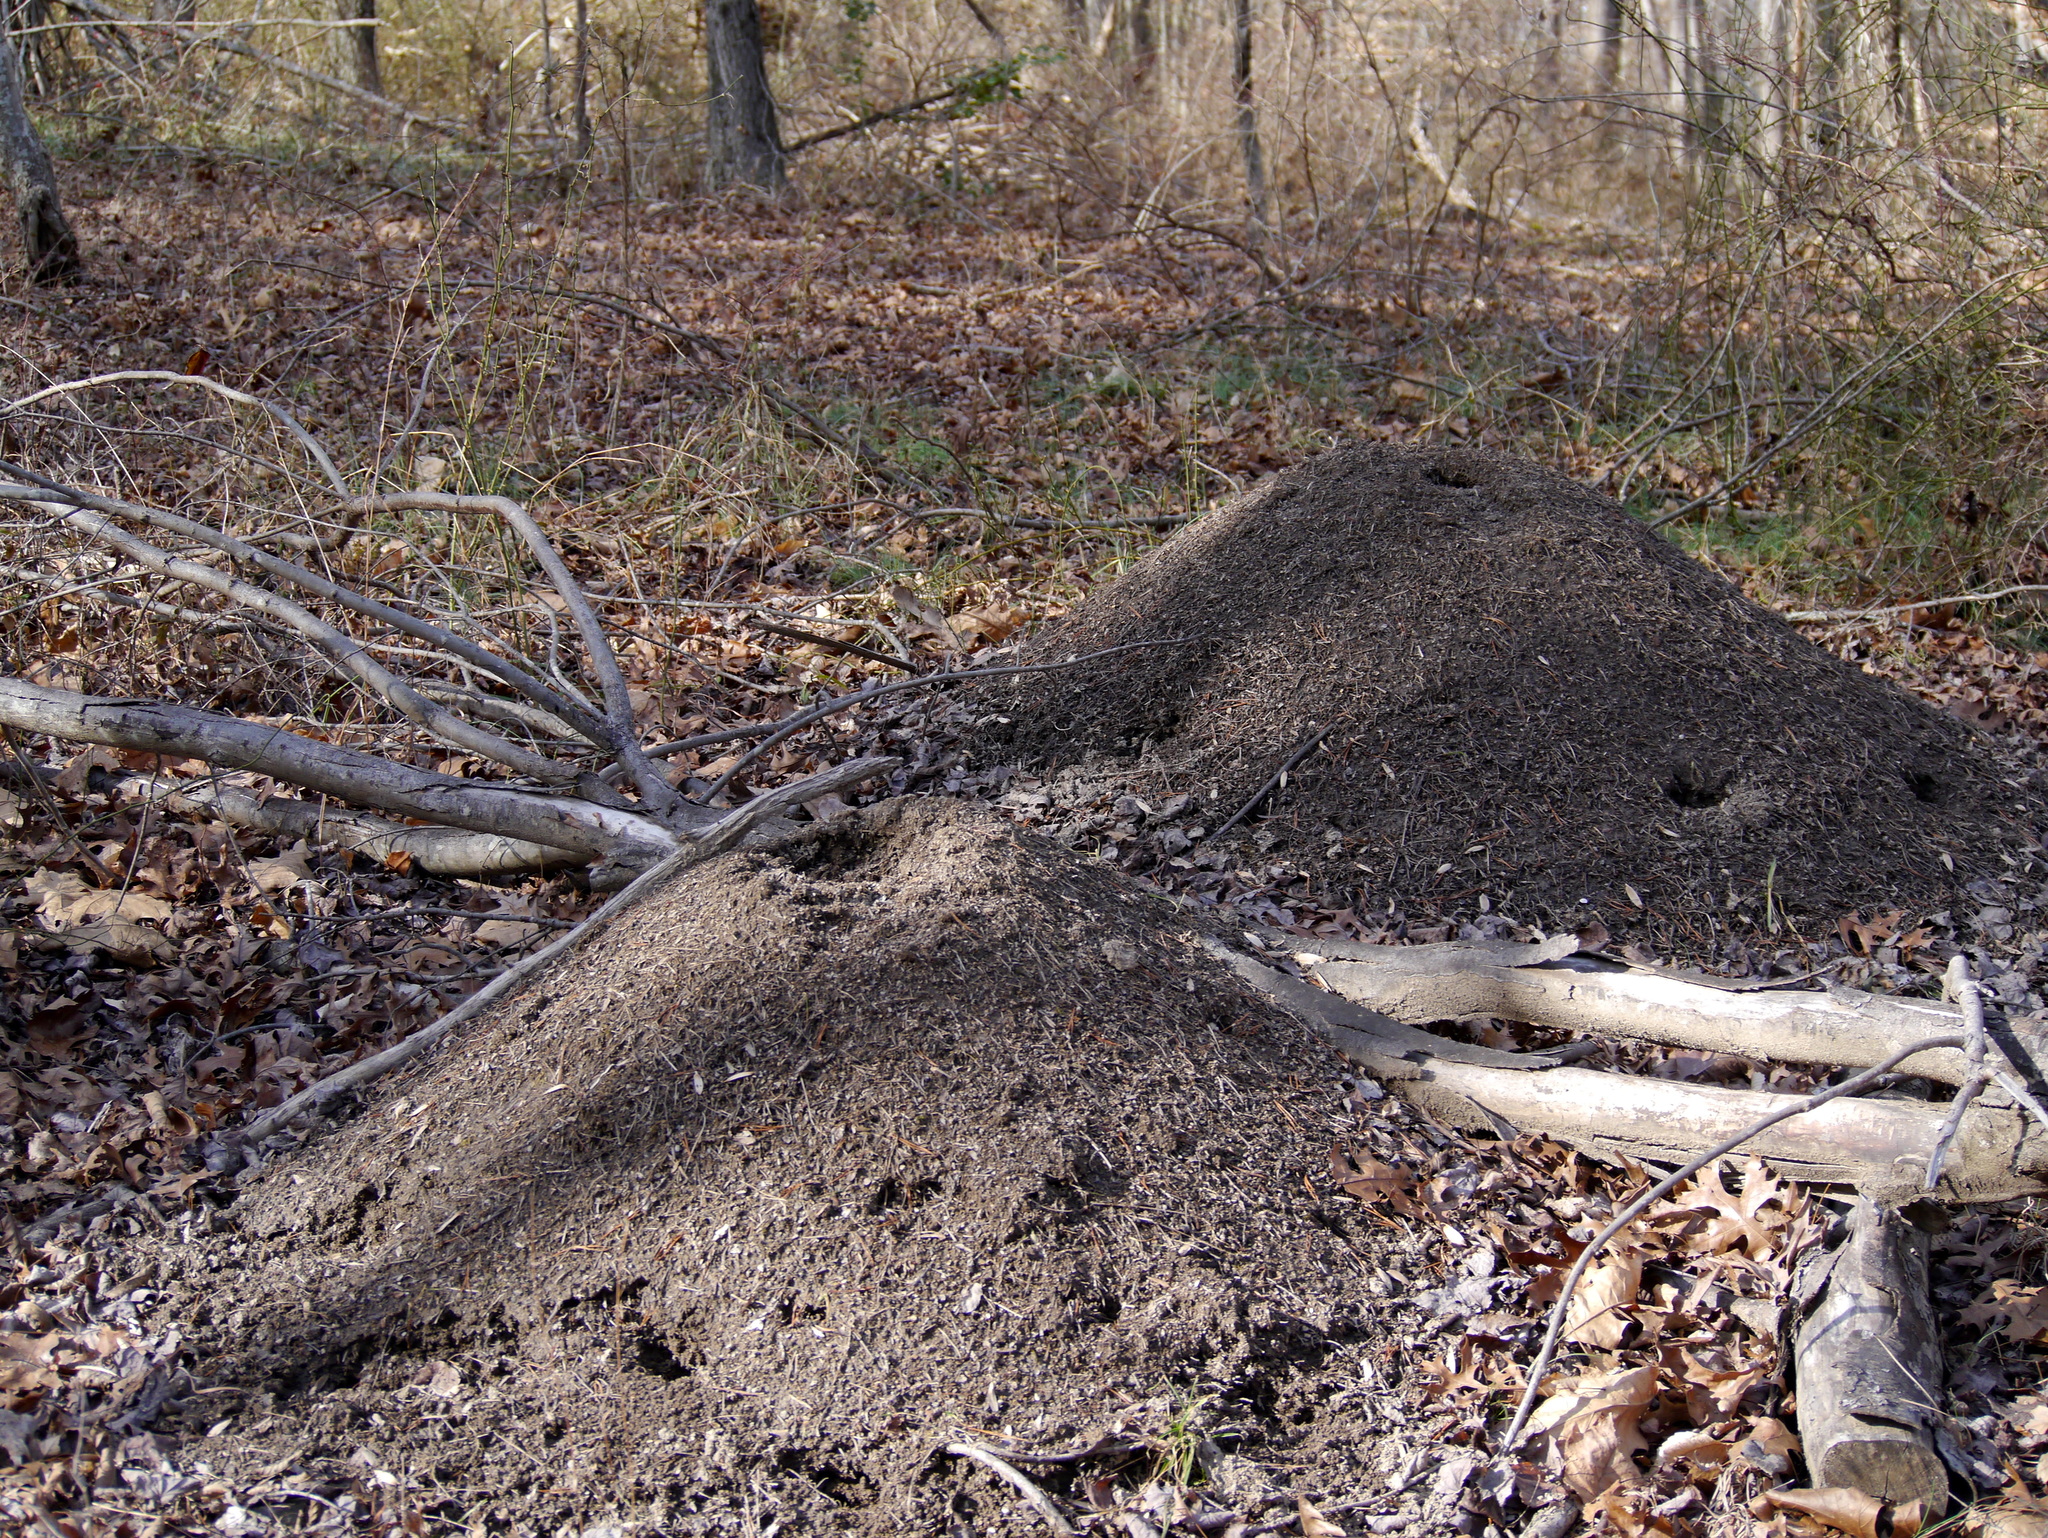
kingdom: Animalia
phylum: Arthropoda
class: Insecta
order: Hymenoptera
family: Formicidae
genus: Formica
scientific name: Formica exsectoides
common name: Allegheny mound ant
